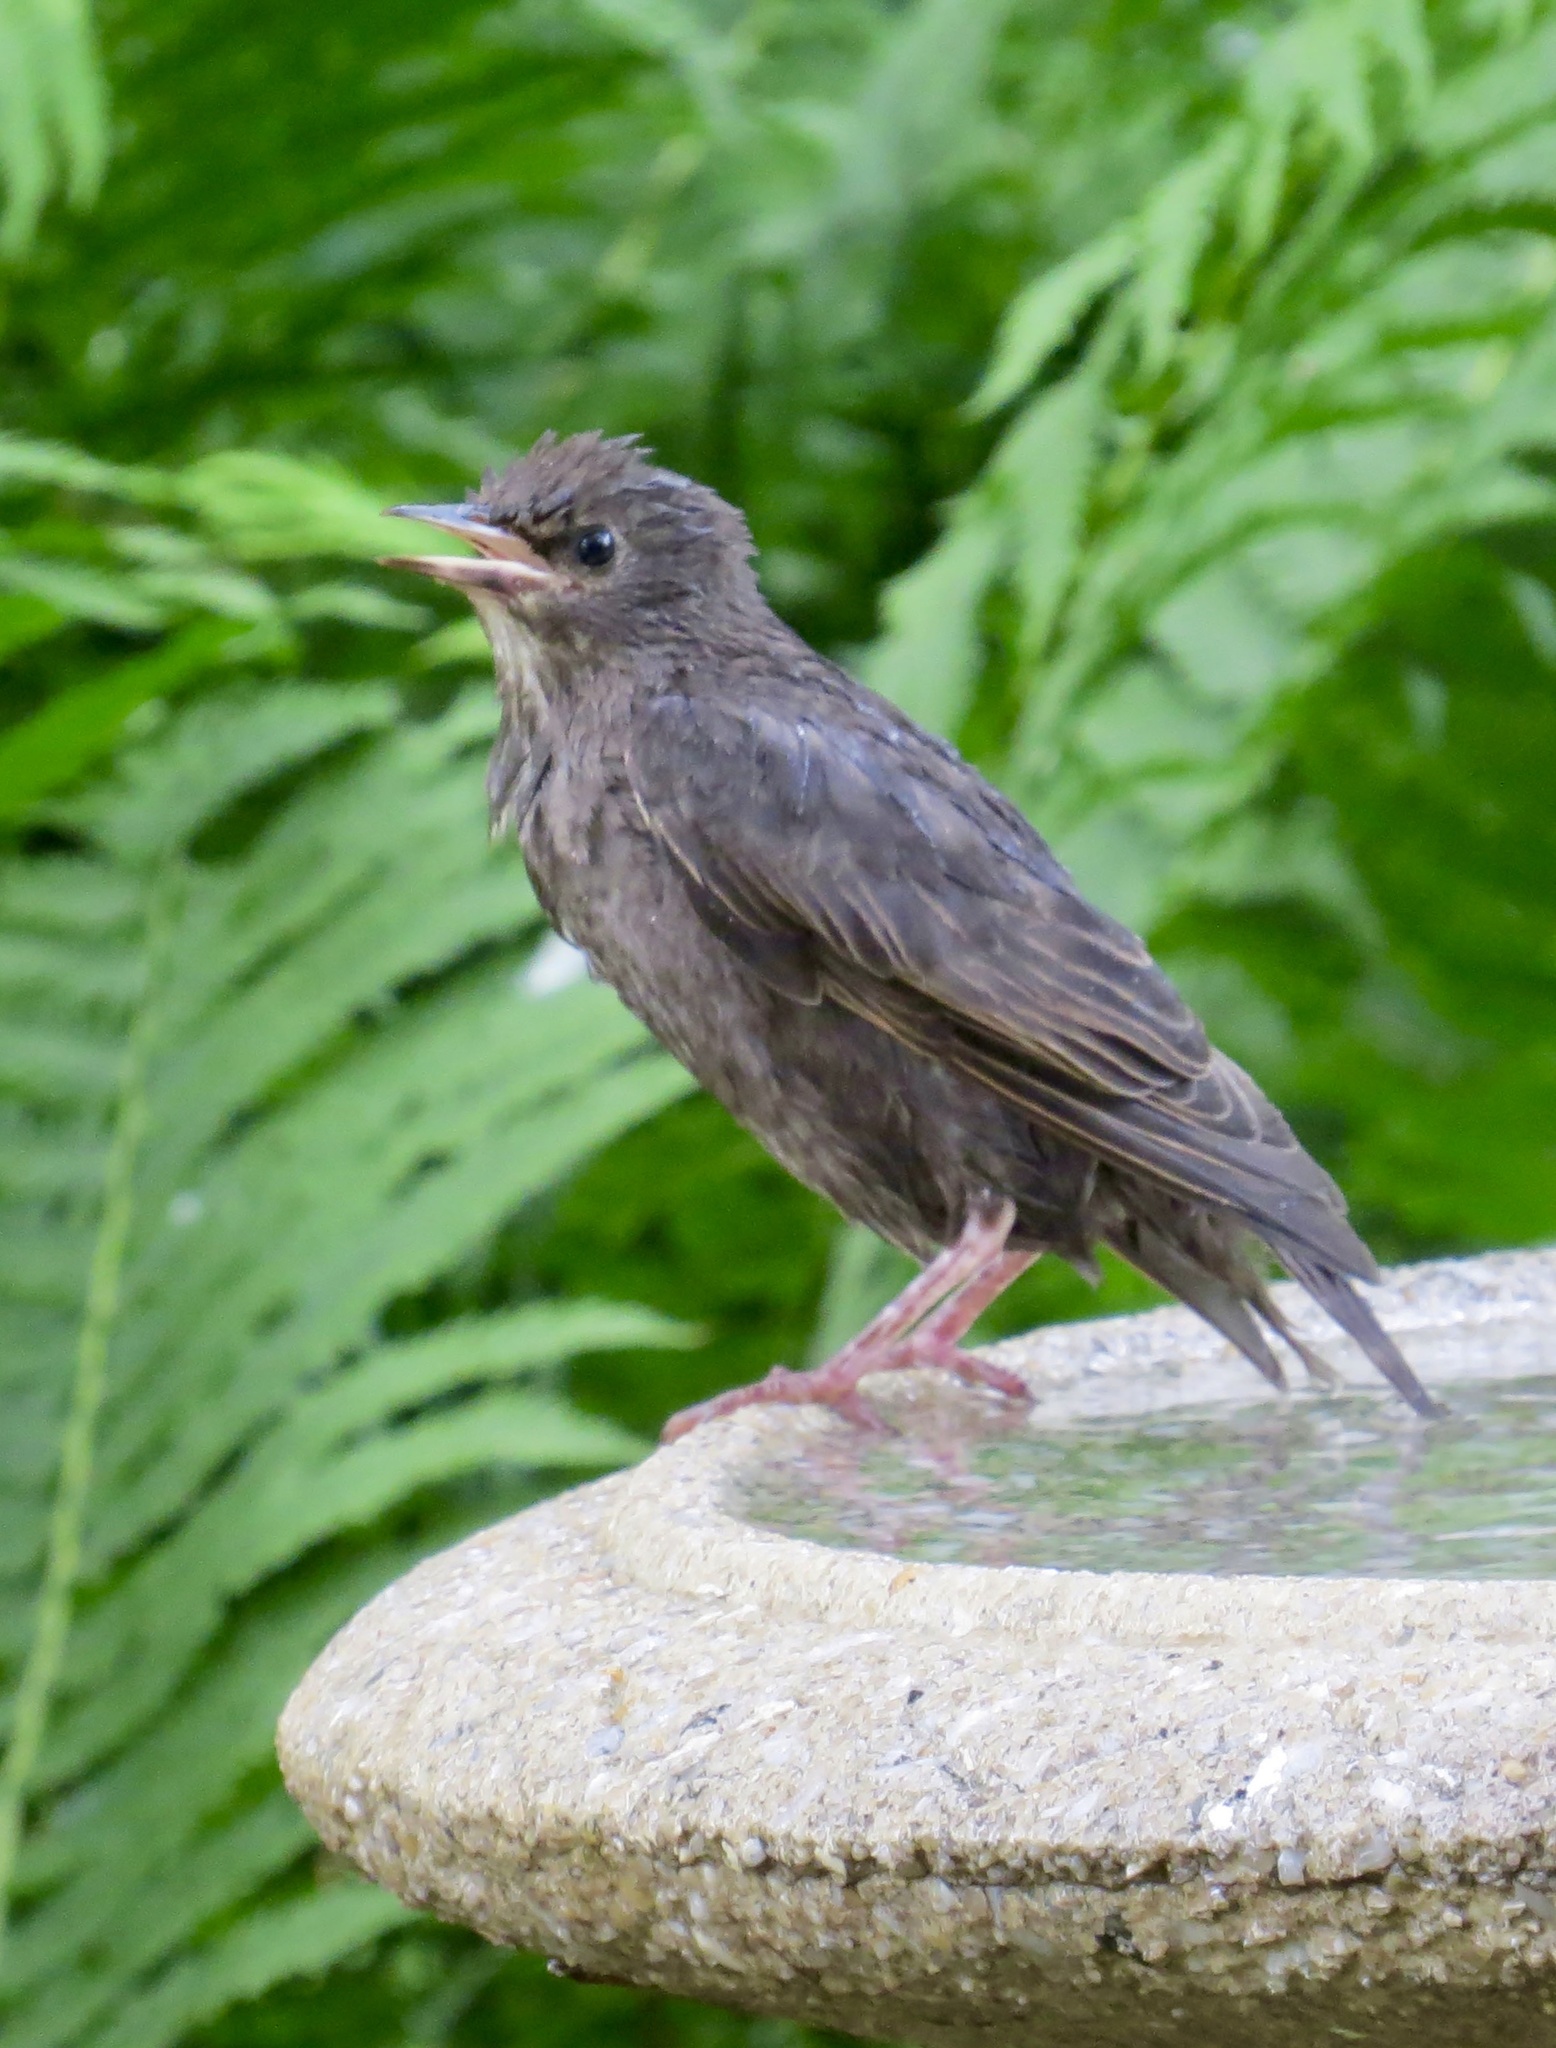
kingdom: Animalia
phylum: Chordata
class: Aves
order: Passeriformes
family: Sturnidae
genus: Sturnus
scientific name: Sturnus vulgaris
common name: Common starling
